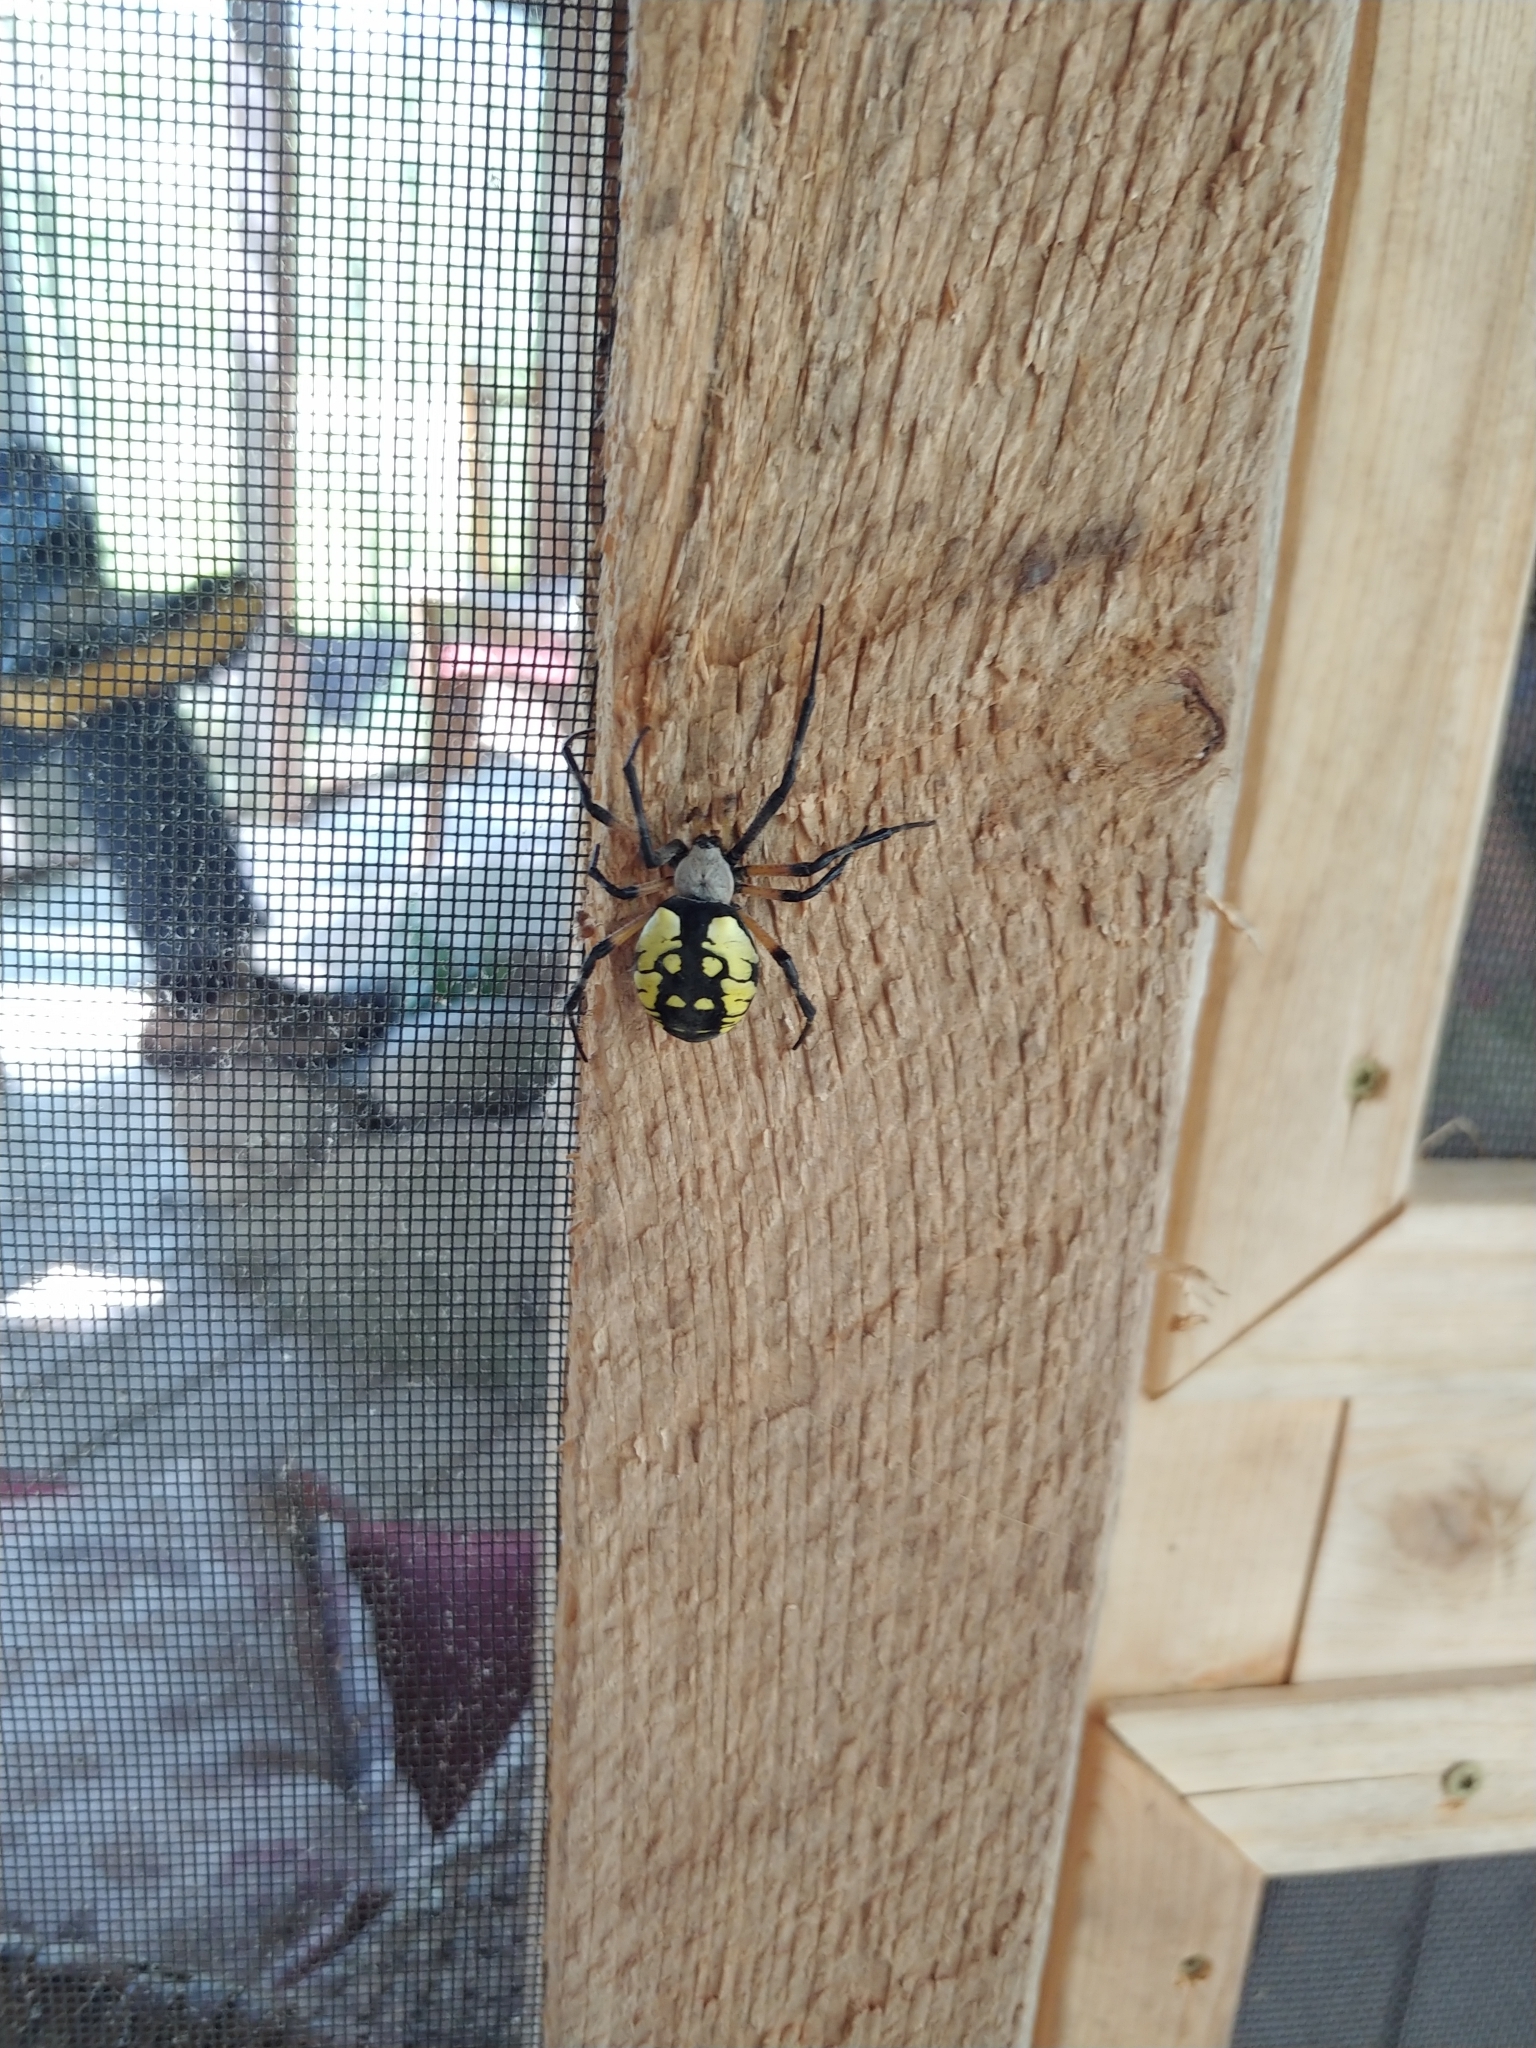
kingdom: Animalia
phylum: Arthropoda
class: Arachnida
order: Araneae
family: Araneidae
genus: Argiope
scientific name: Argiope aurantia
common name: Orb weavers
